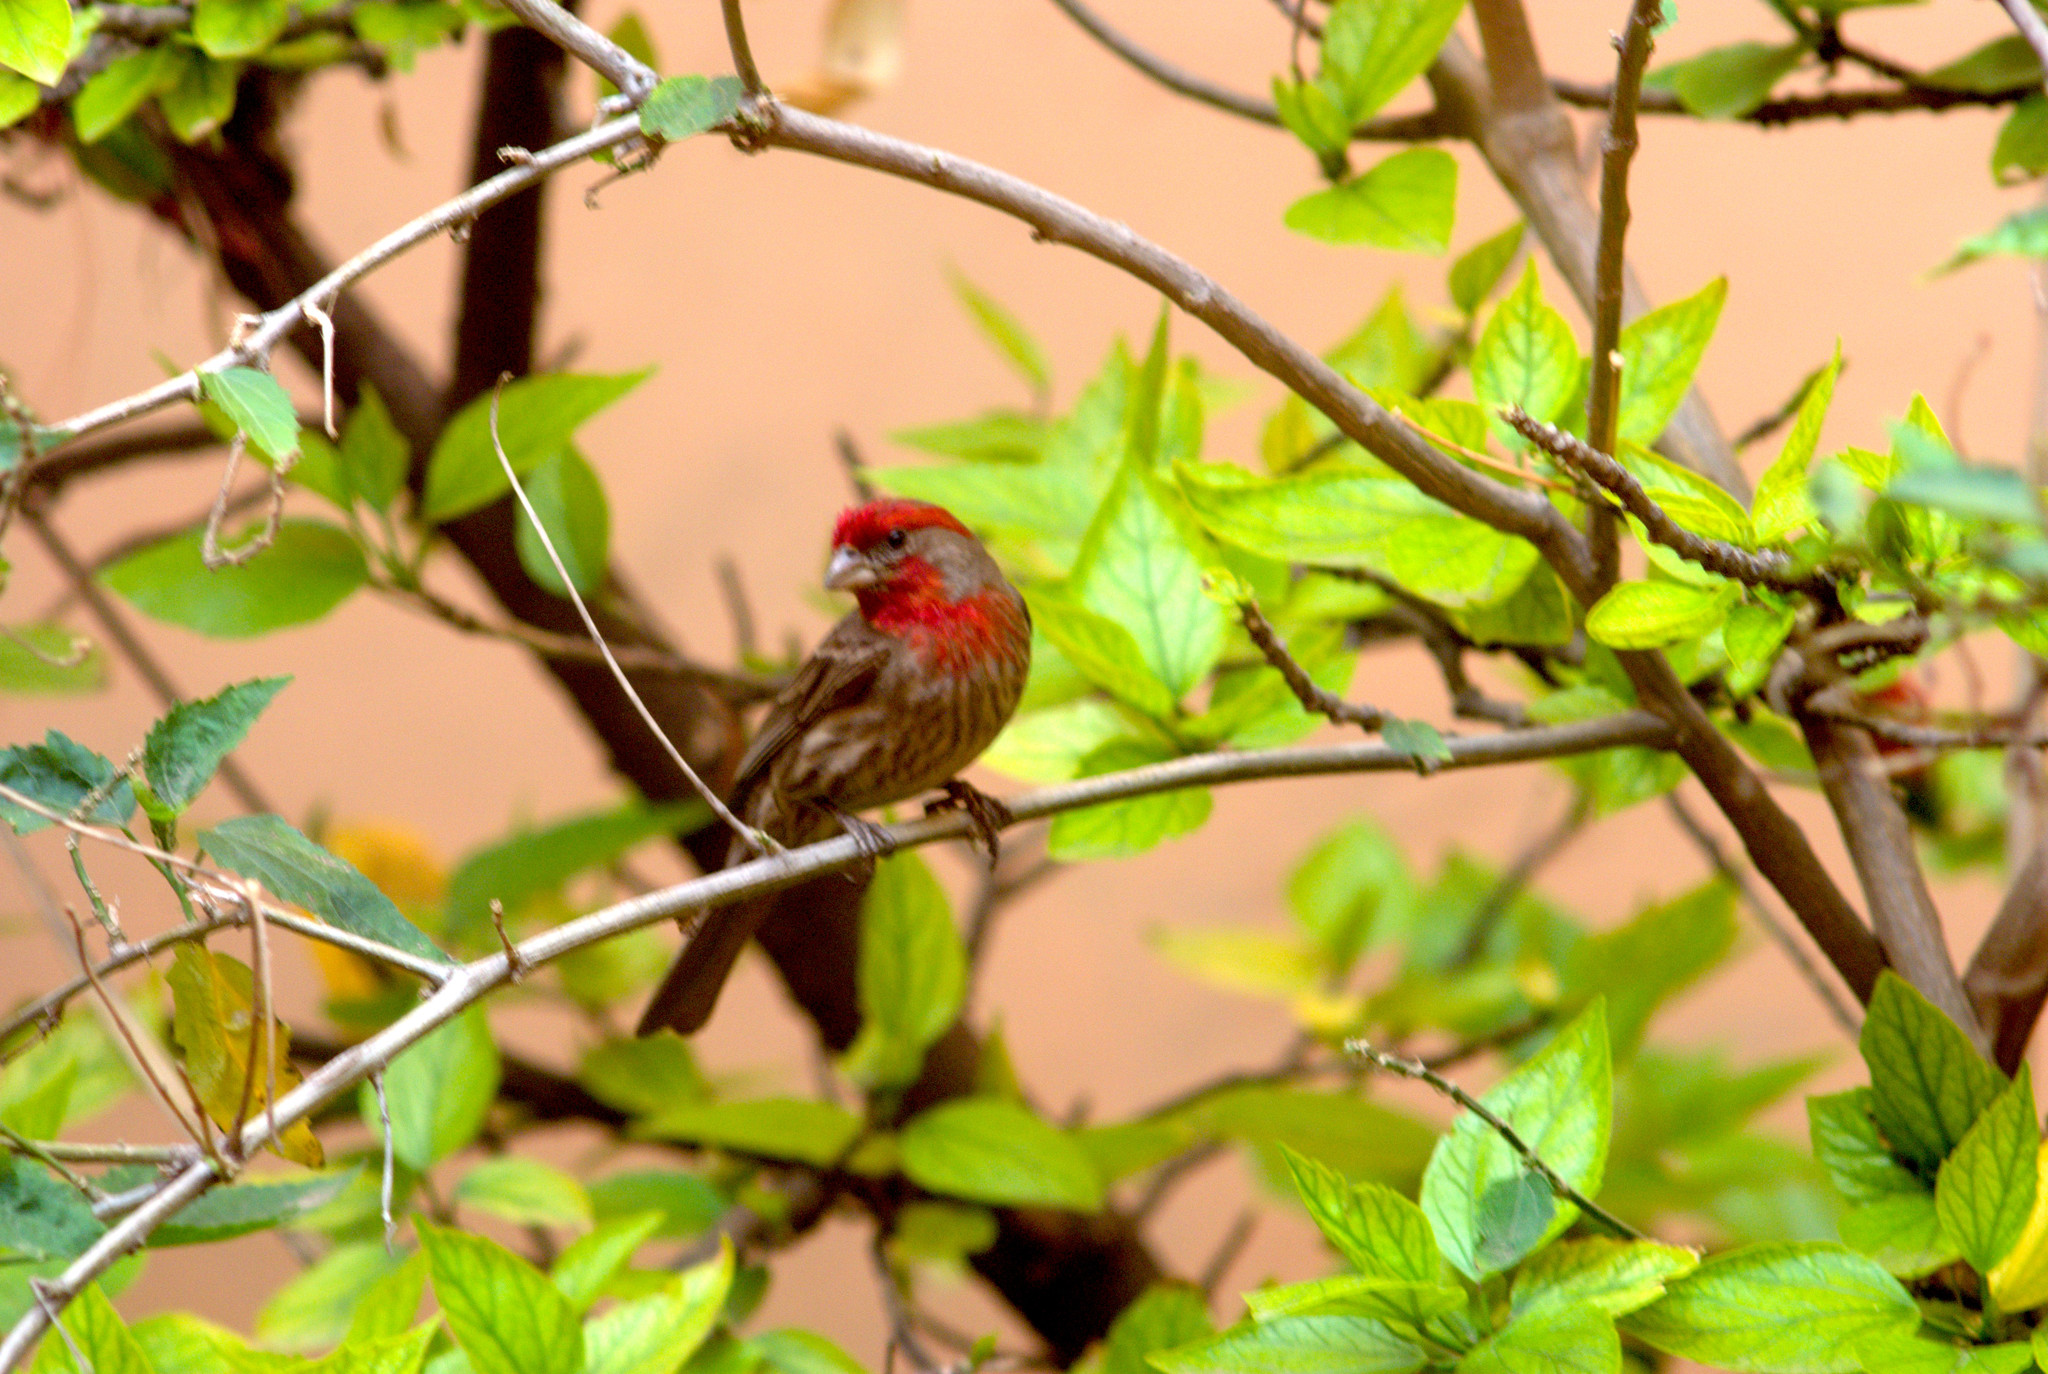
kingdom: Animalia
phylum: Chordata
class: Aves
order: Passeriformes
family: Fringillidae
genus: Haemorhous
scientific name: Haemorhous mexicanus
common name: House finch
